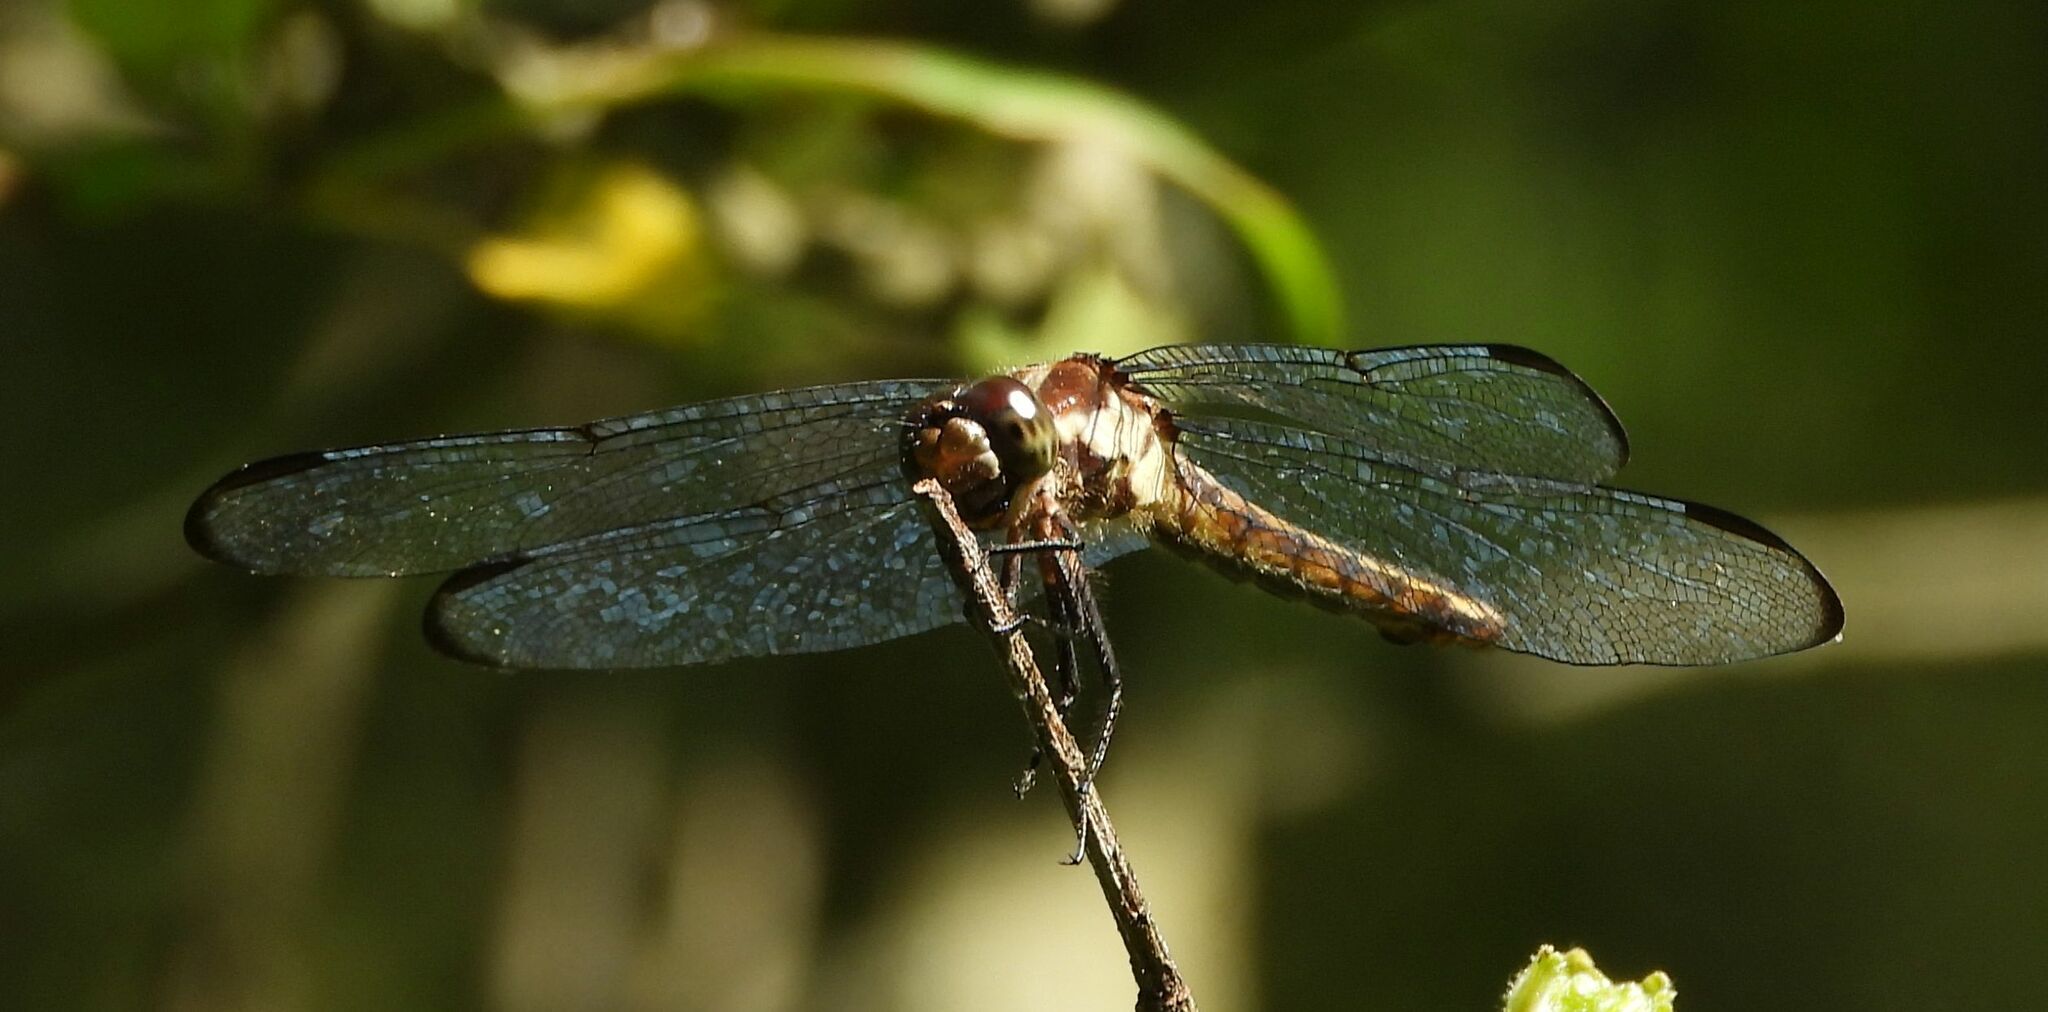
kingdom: Animalia
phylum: Arthropoda
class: Insecta
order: Odonata
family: Libellulidae
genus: Libellula
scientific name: Libellula incesta
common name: Slaty skimmer
